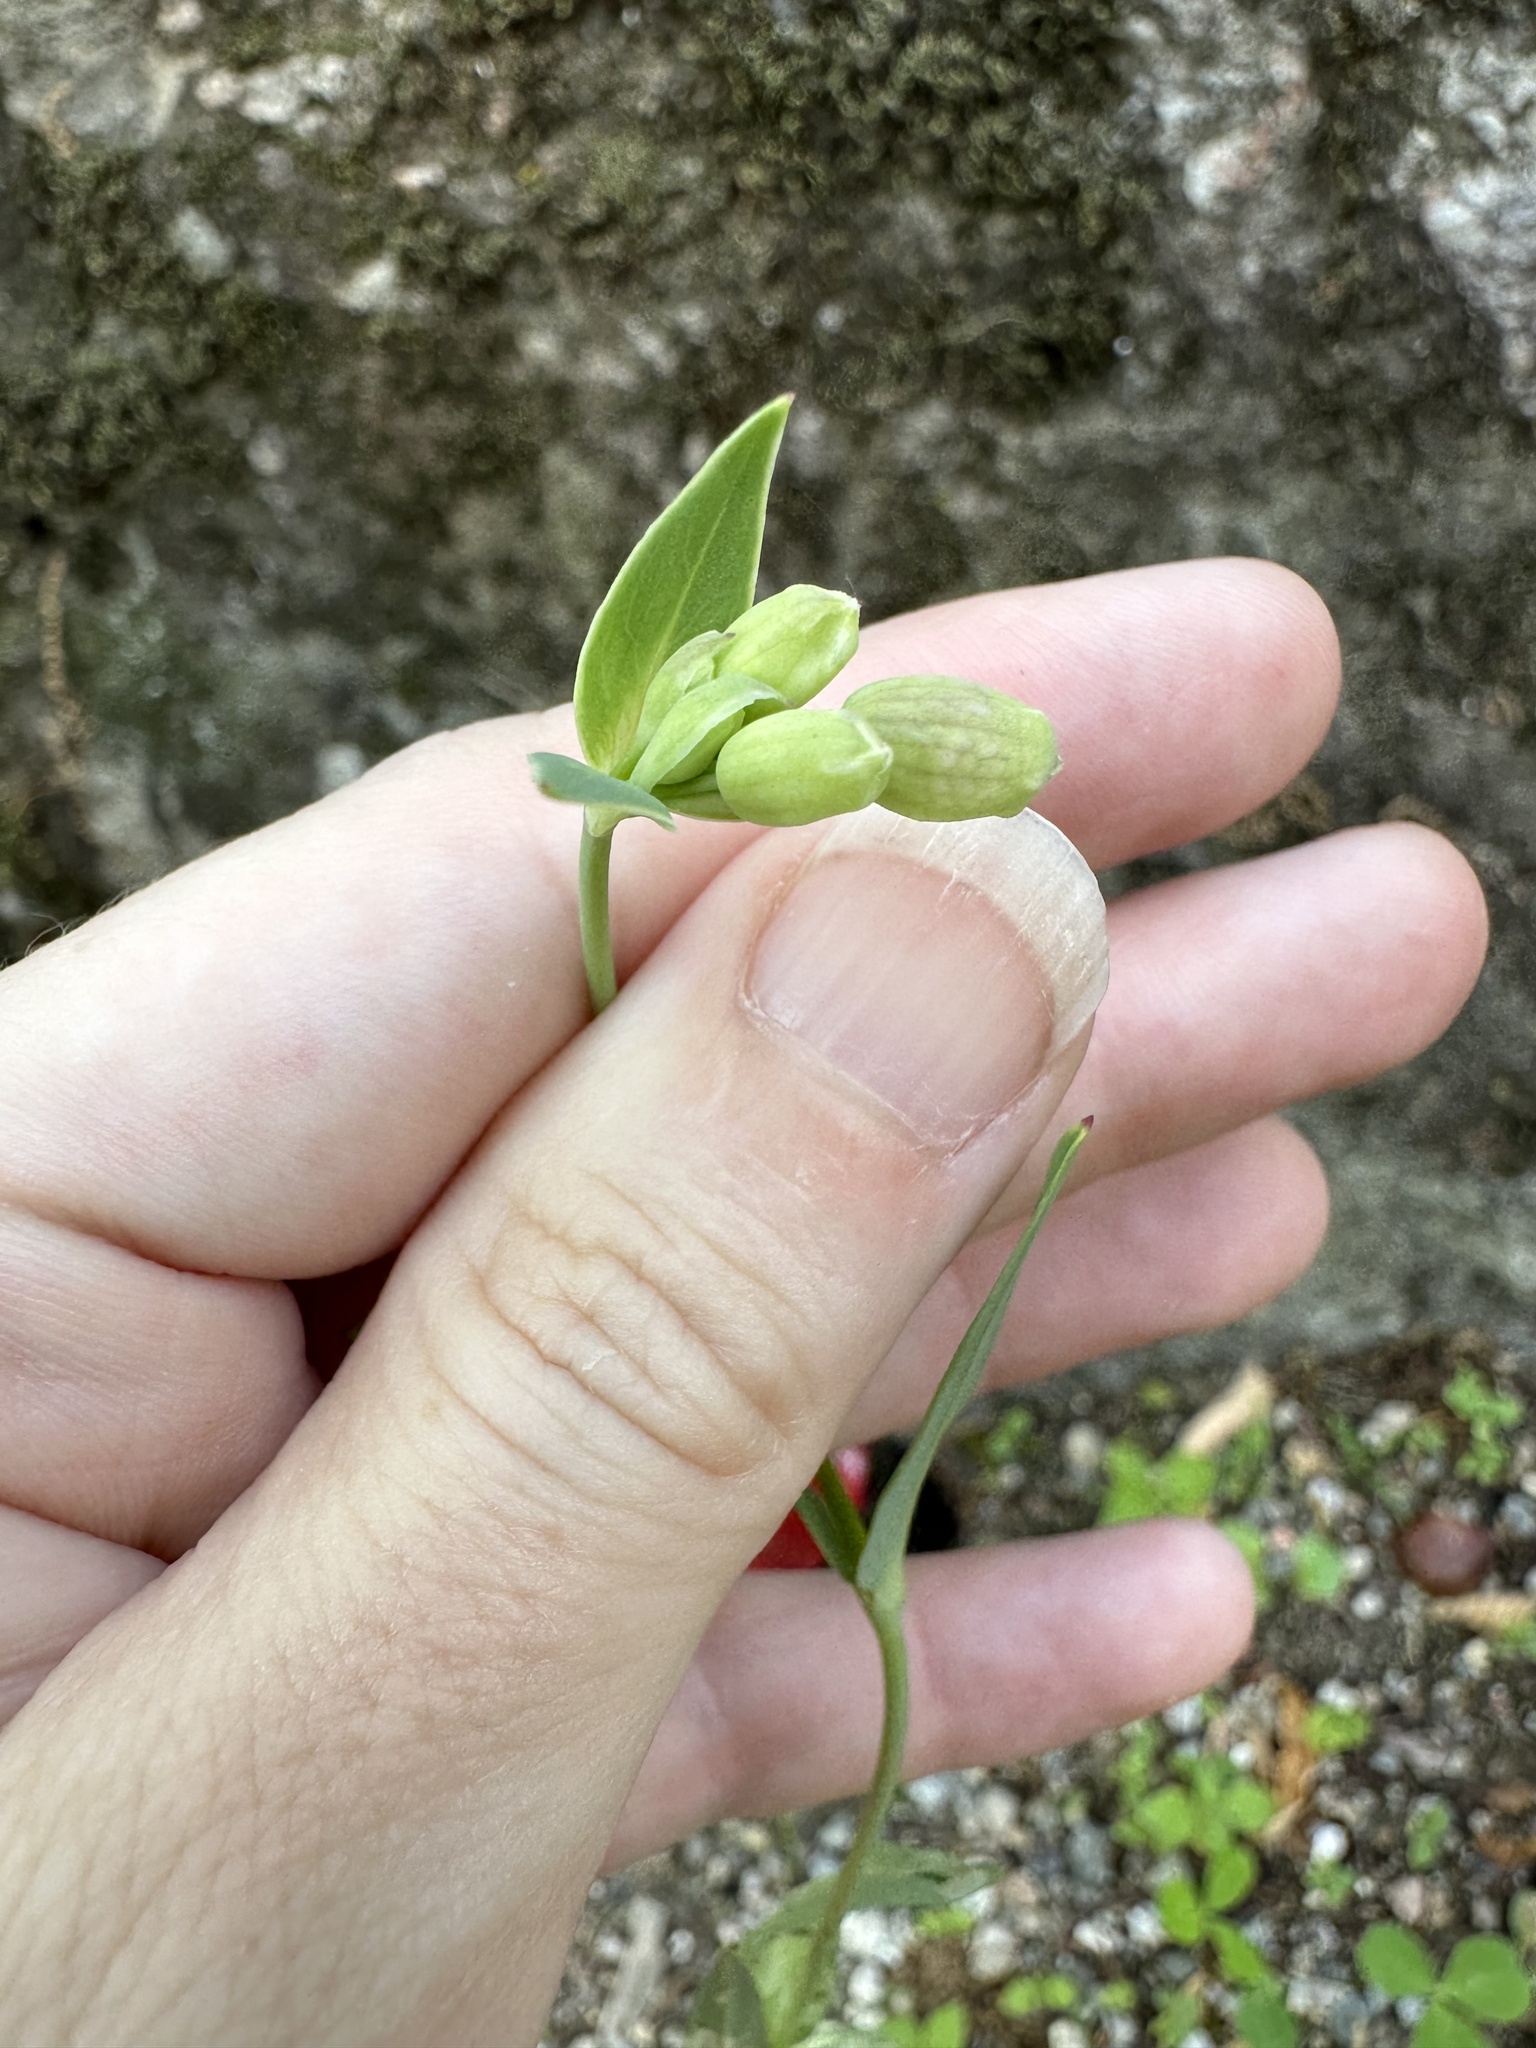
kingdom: Plantae
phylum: Tracheophyta
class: Magnoliopsida
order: Caryophyllales
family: Caryophyllaceae
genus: Silene
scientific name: Silene vulgaris
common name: Bladder campion
